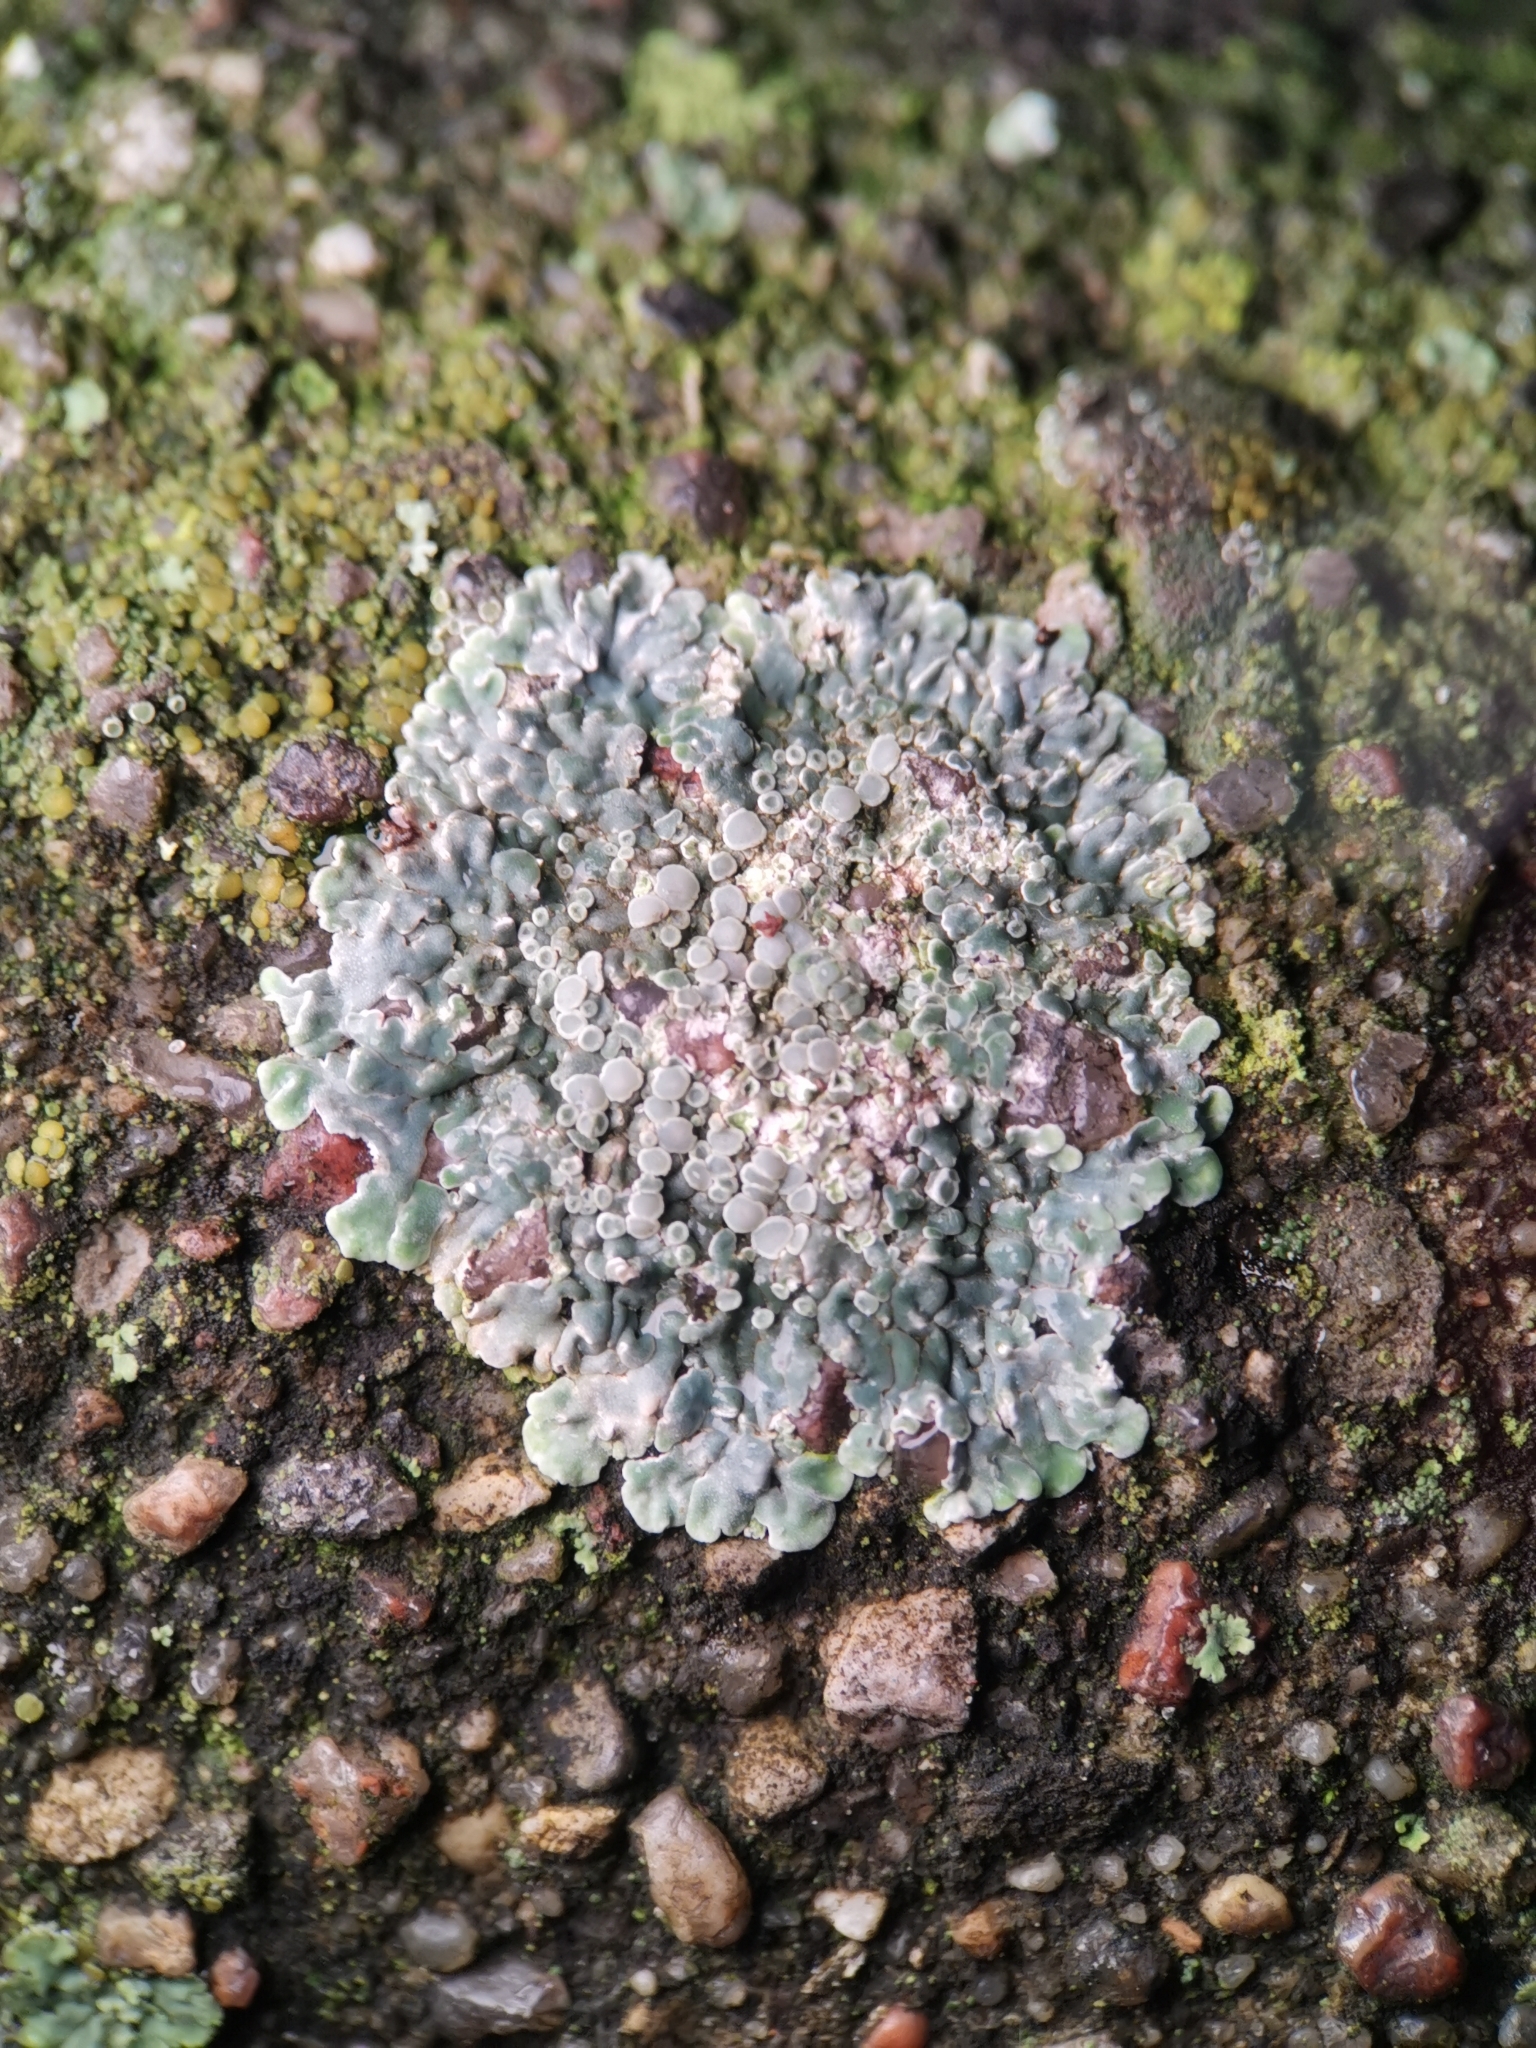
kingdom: Fungi
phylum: Ascomycota
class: Lecanoromycetes
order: Lecanorales
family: Lecanoraceae
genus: Protoparmeliopsis
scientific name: Protoparmeliopsis muralis
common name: Stonewall rim lichen
